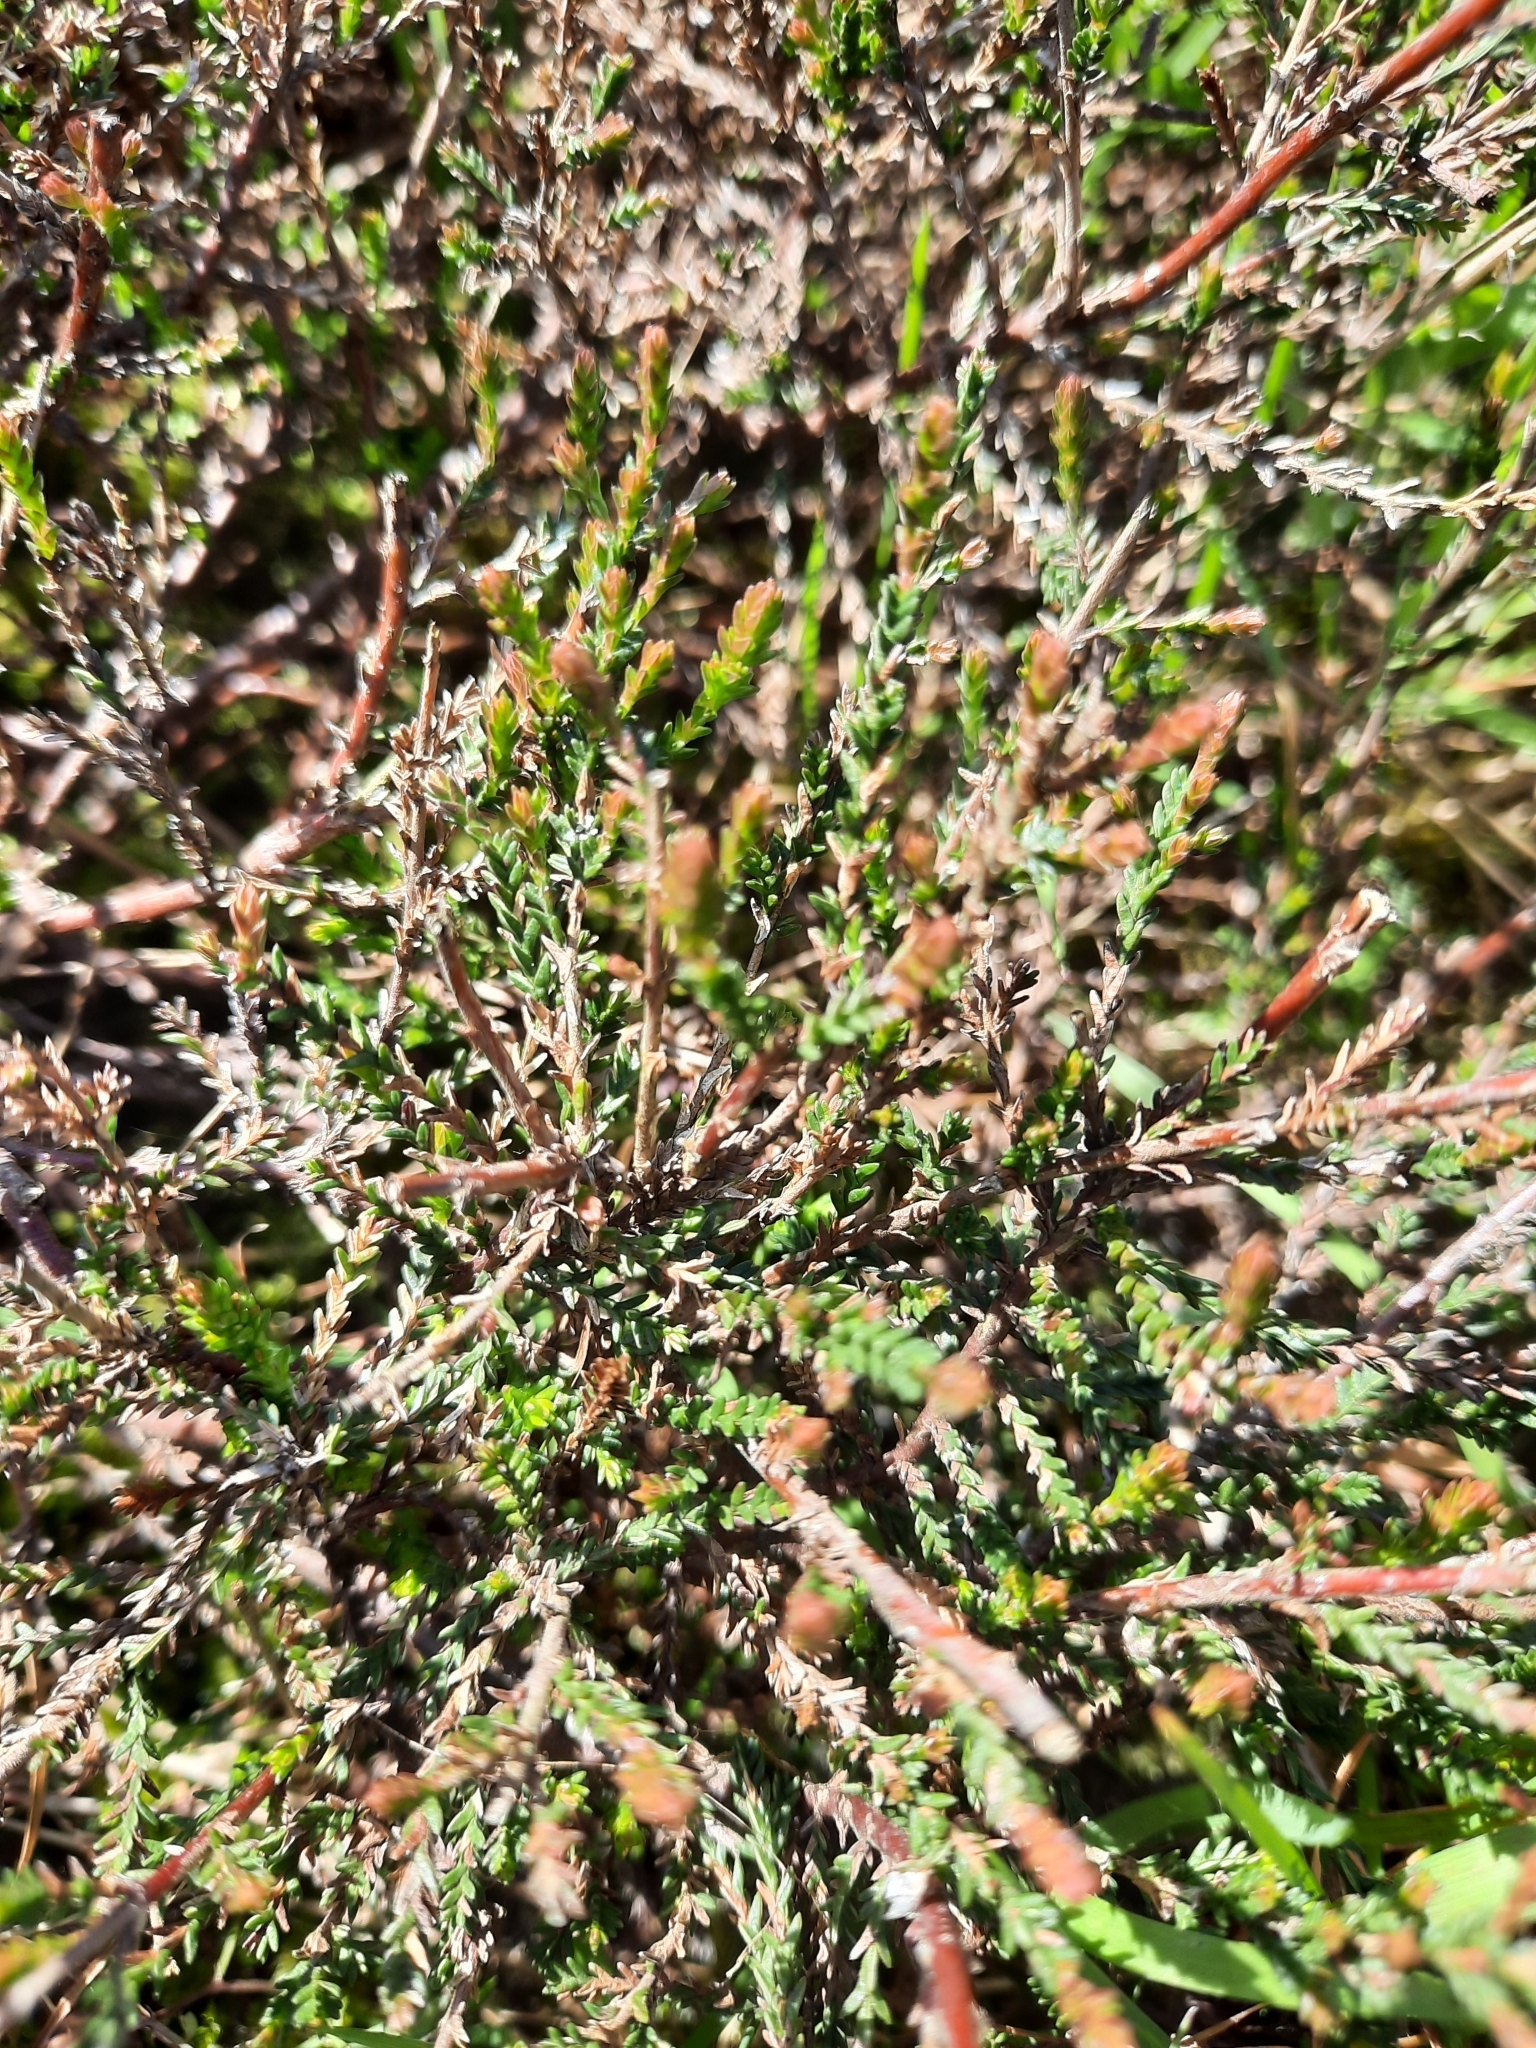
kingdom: Plantae
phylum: Tracheophyta
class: Magnoliopsida
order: Ericales
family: Ericaceae
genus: Calluna
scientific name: Calluna vulgaris
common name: Heather
